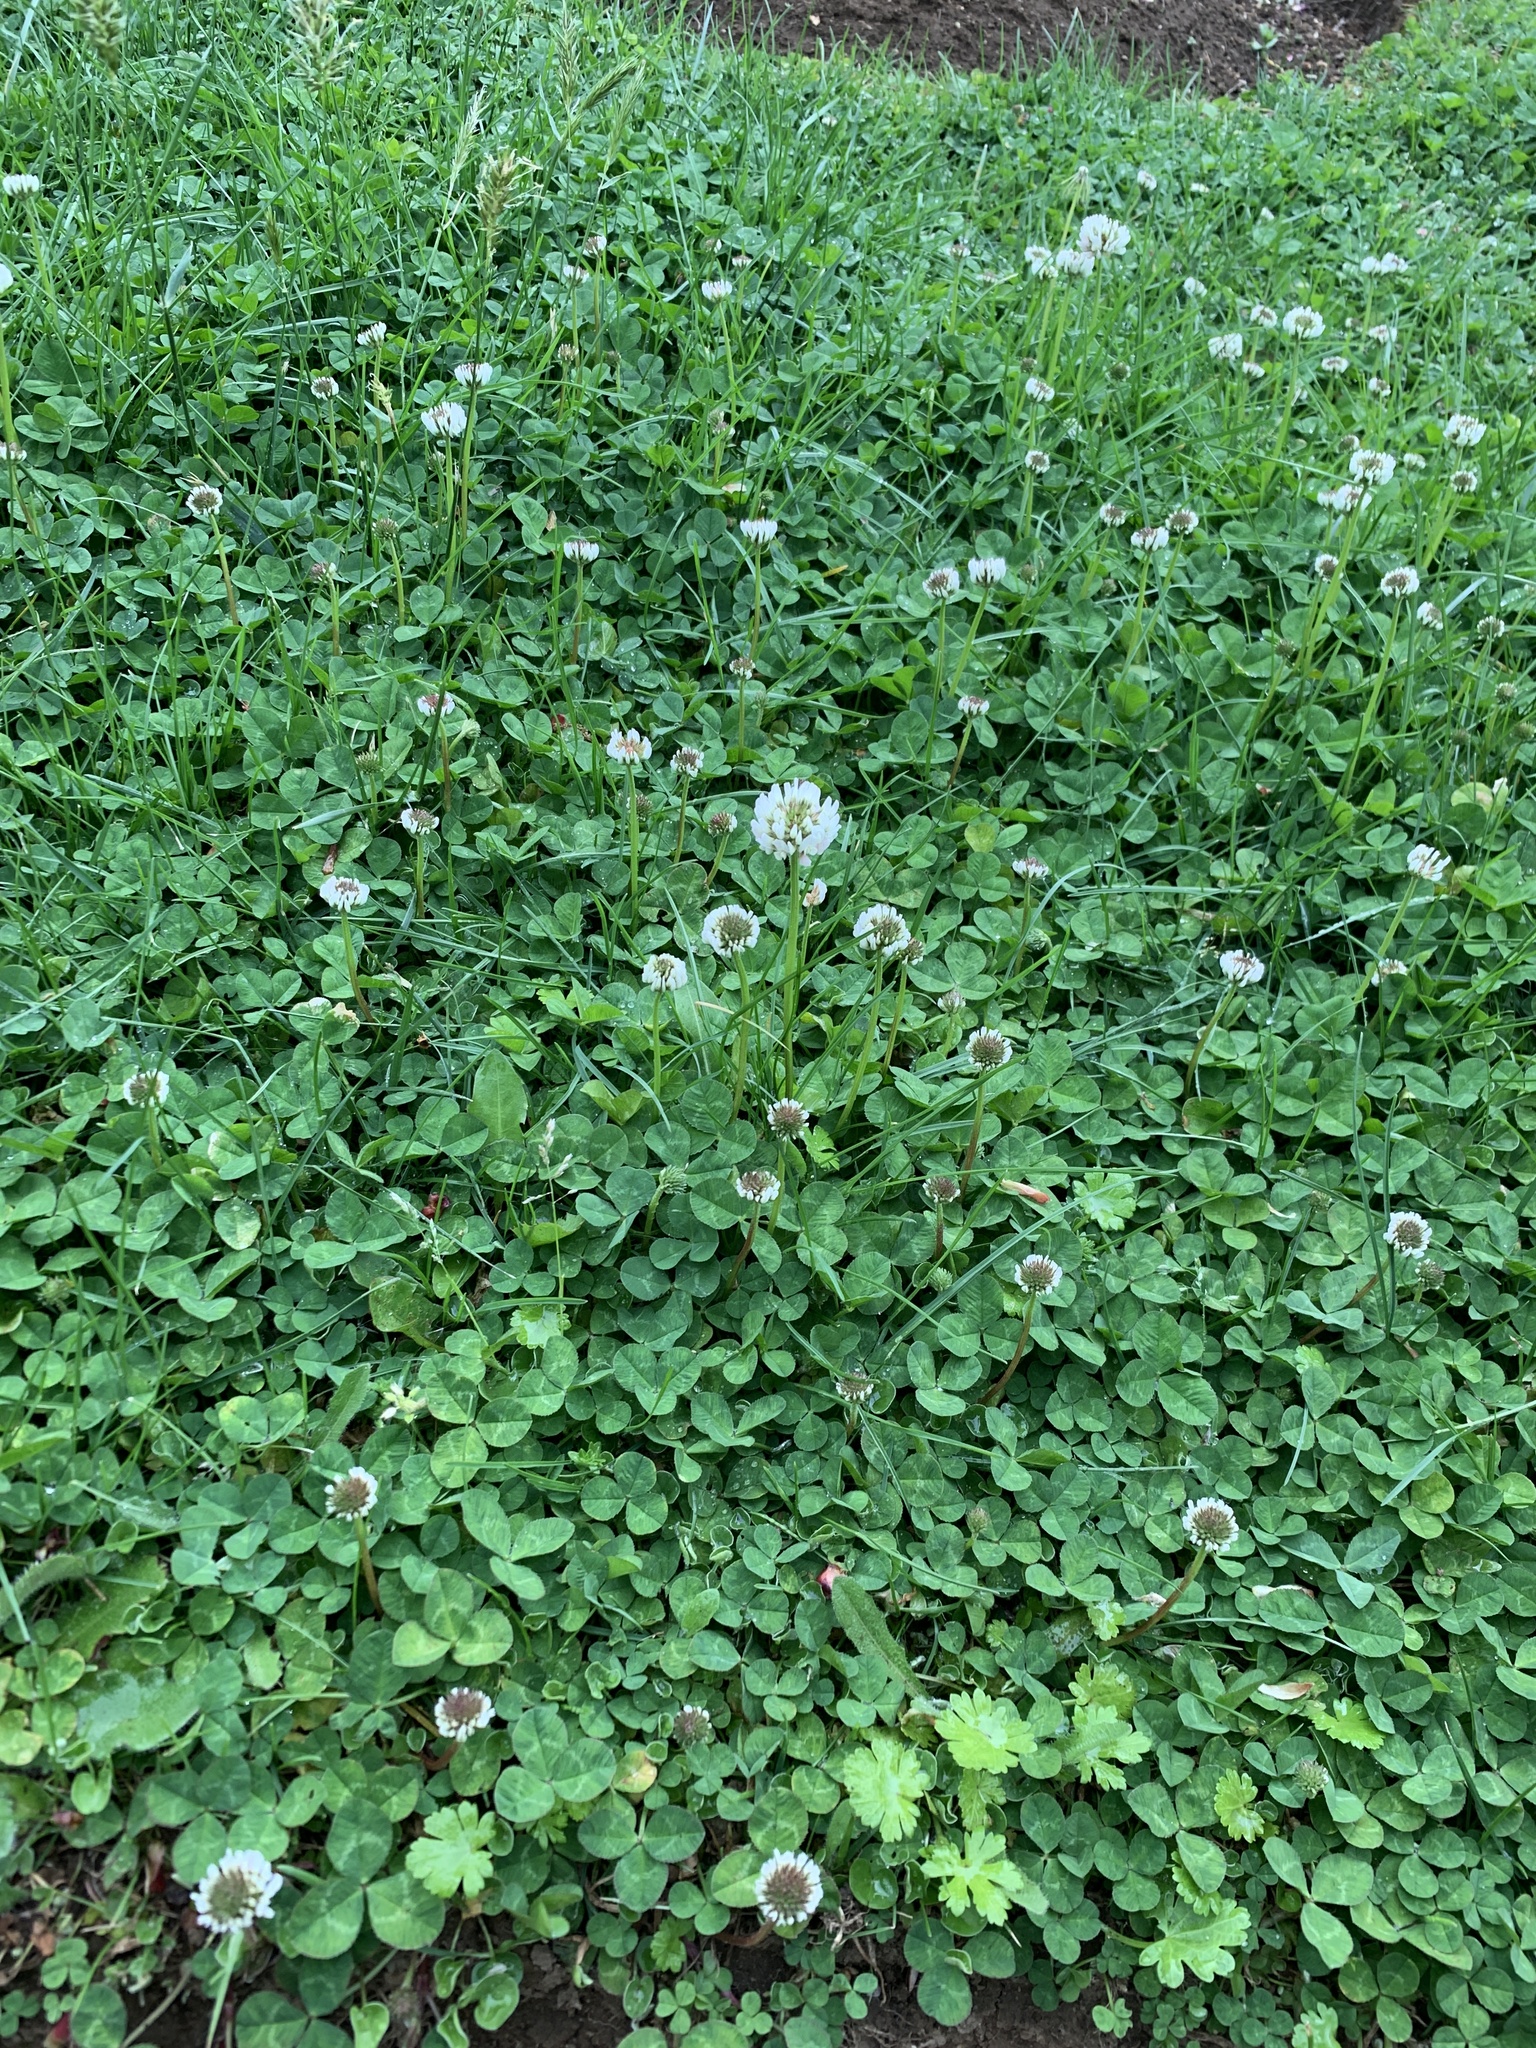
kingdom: Plantae
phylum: Tracheophyta
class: Magnoliopsida
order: Fabales
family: Fabaceae
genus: Trifolium
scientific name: Trifolium repens
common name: White clover
